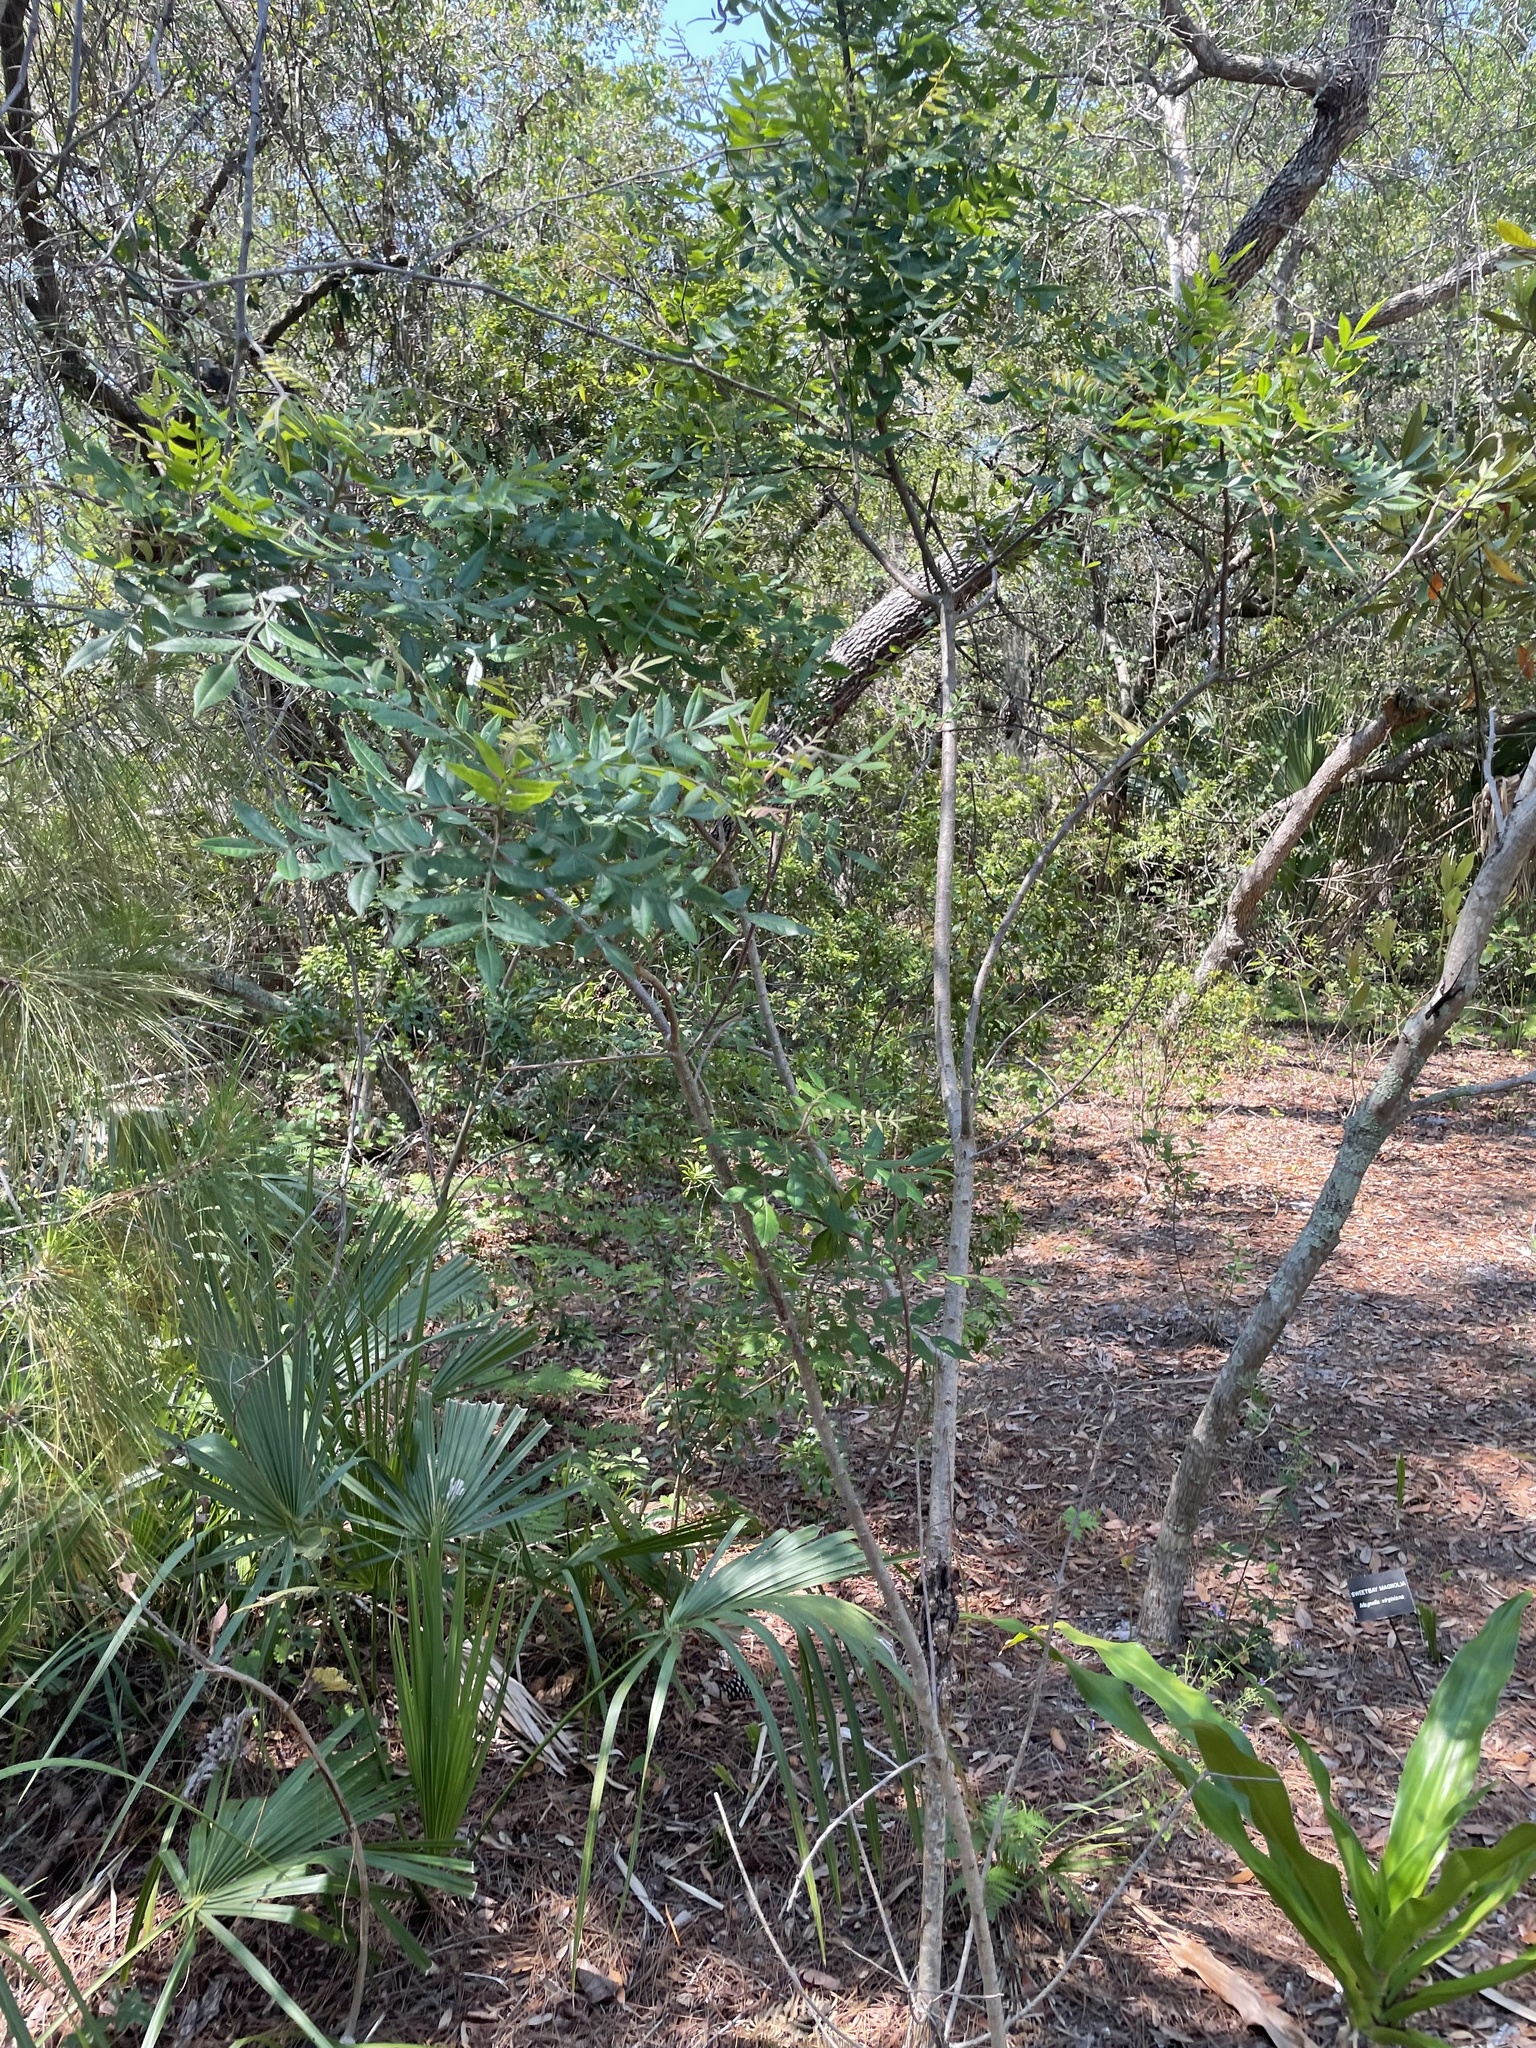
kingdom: Plantae
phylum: Tracheophyta
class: Magnoliopsida
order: Sapindales
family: Anacardiaceae
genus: Rhus
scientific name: Rhus copallina
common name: Shining sumac
